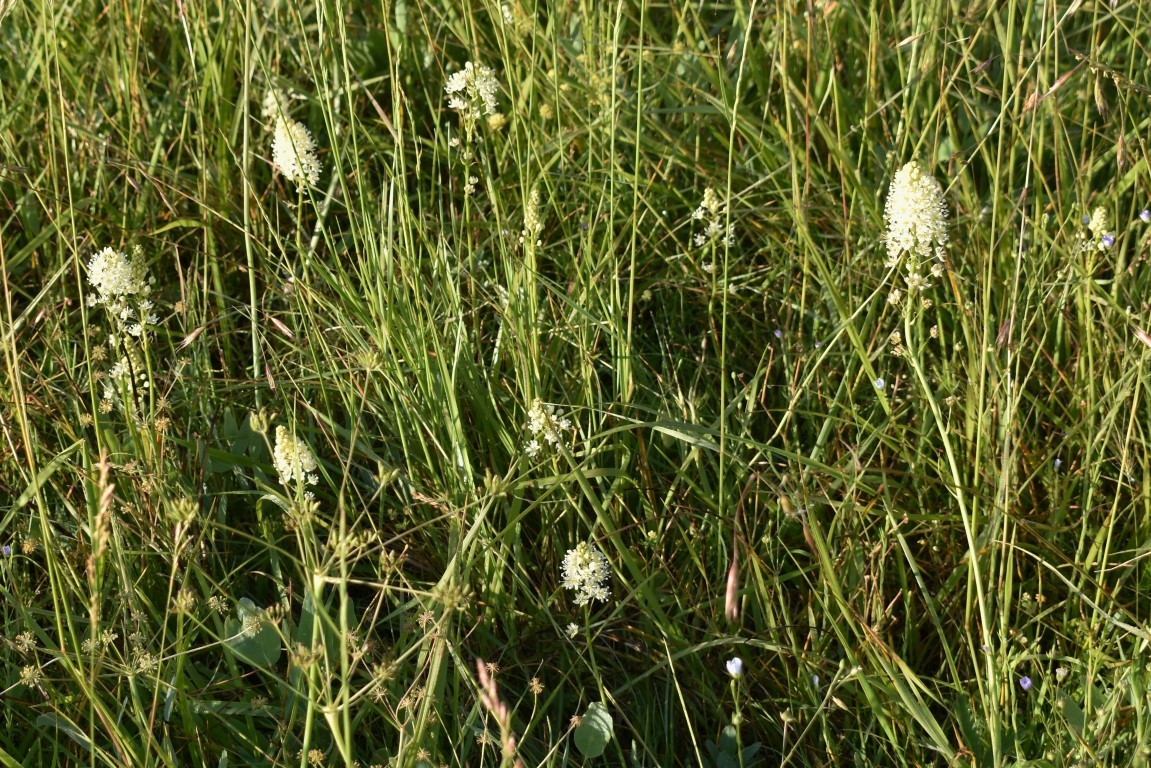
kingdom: Plantae
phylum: Tracheophyta
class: Liliopsida
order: Liliales
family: Melanthiaceae
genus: Toxicoscordion
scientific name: Toxicoscordion venenosum
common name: Meadow death camas
